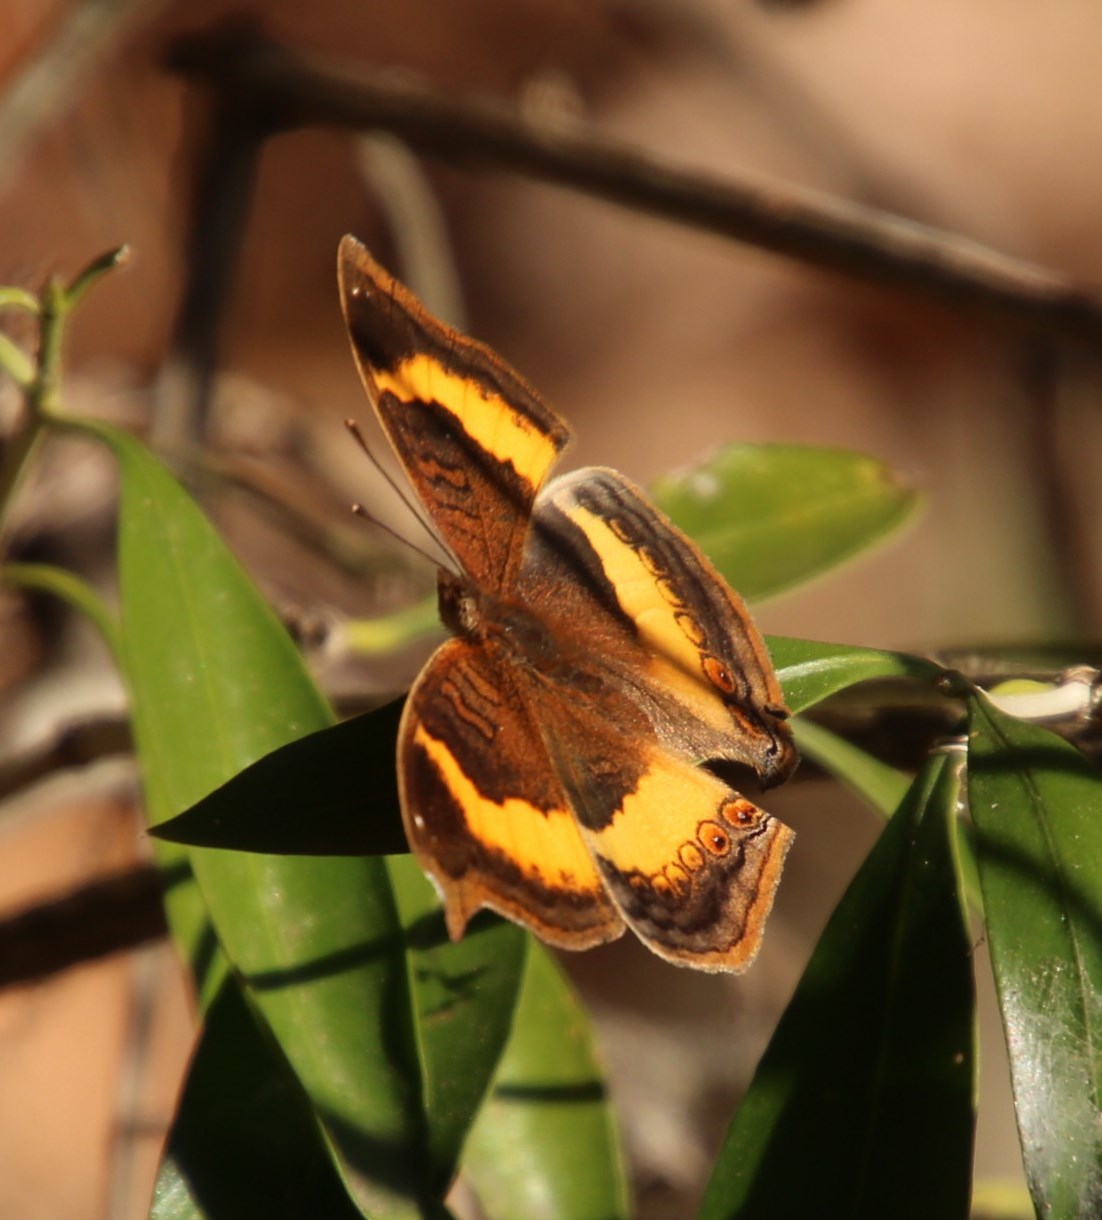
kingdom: Animalia
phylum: Arthropoda
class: Insecta
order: Lepidoptera
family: Nymphalidae
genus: Junonia
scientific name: Junonia terea
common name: Soldier pansy
